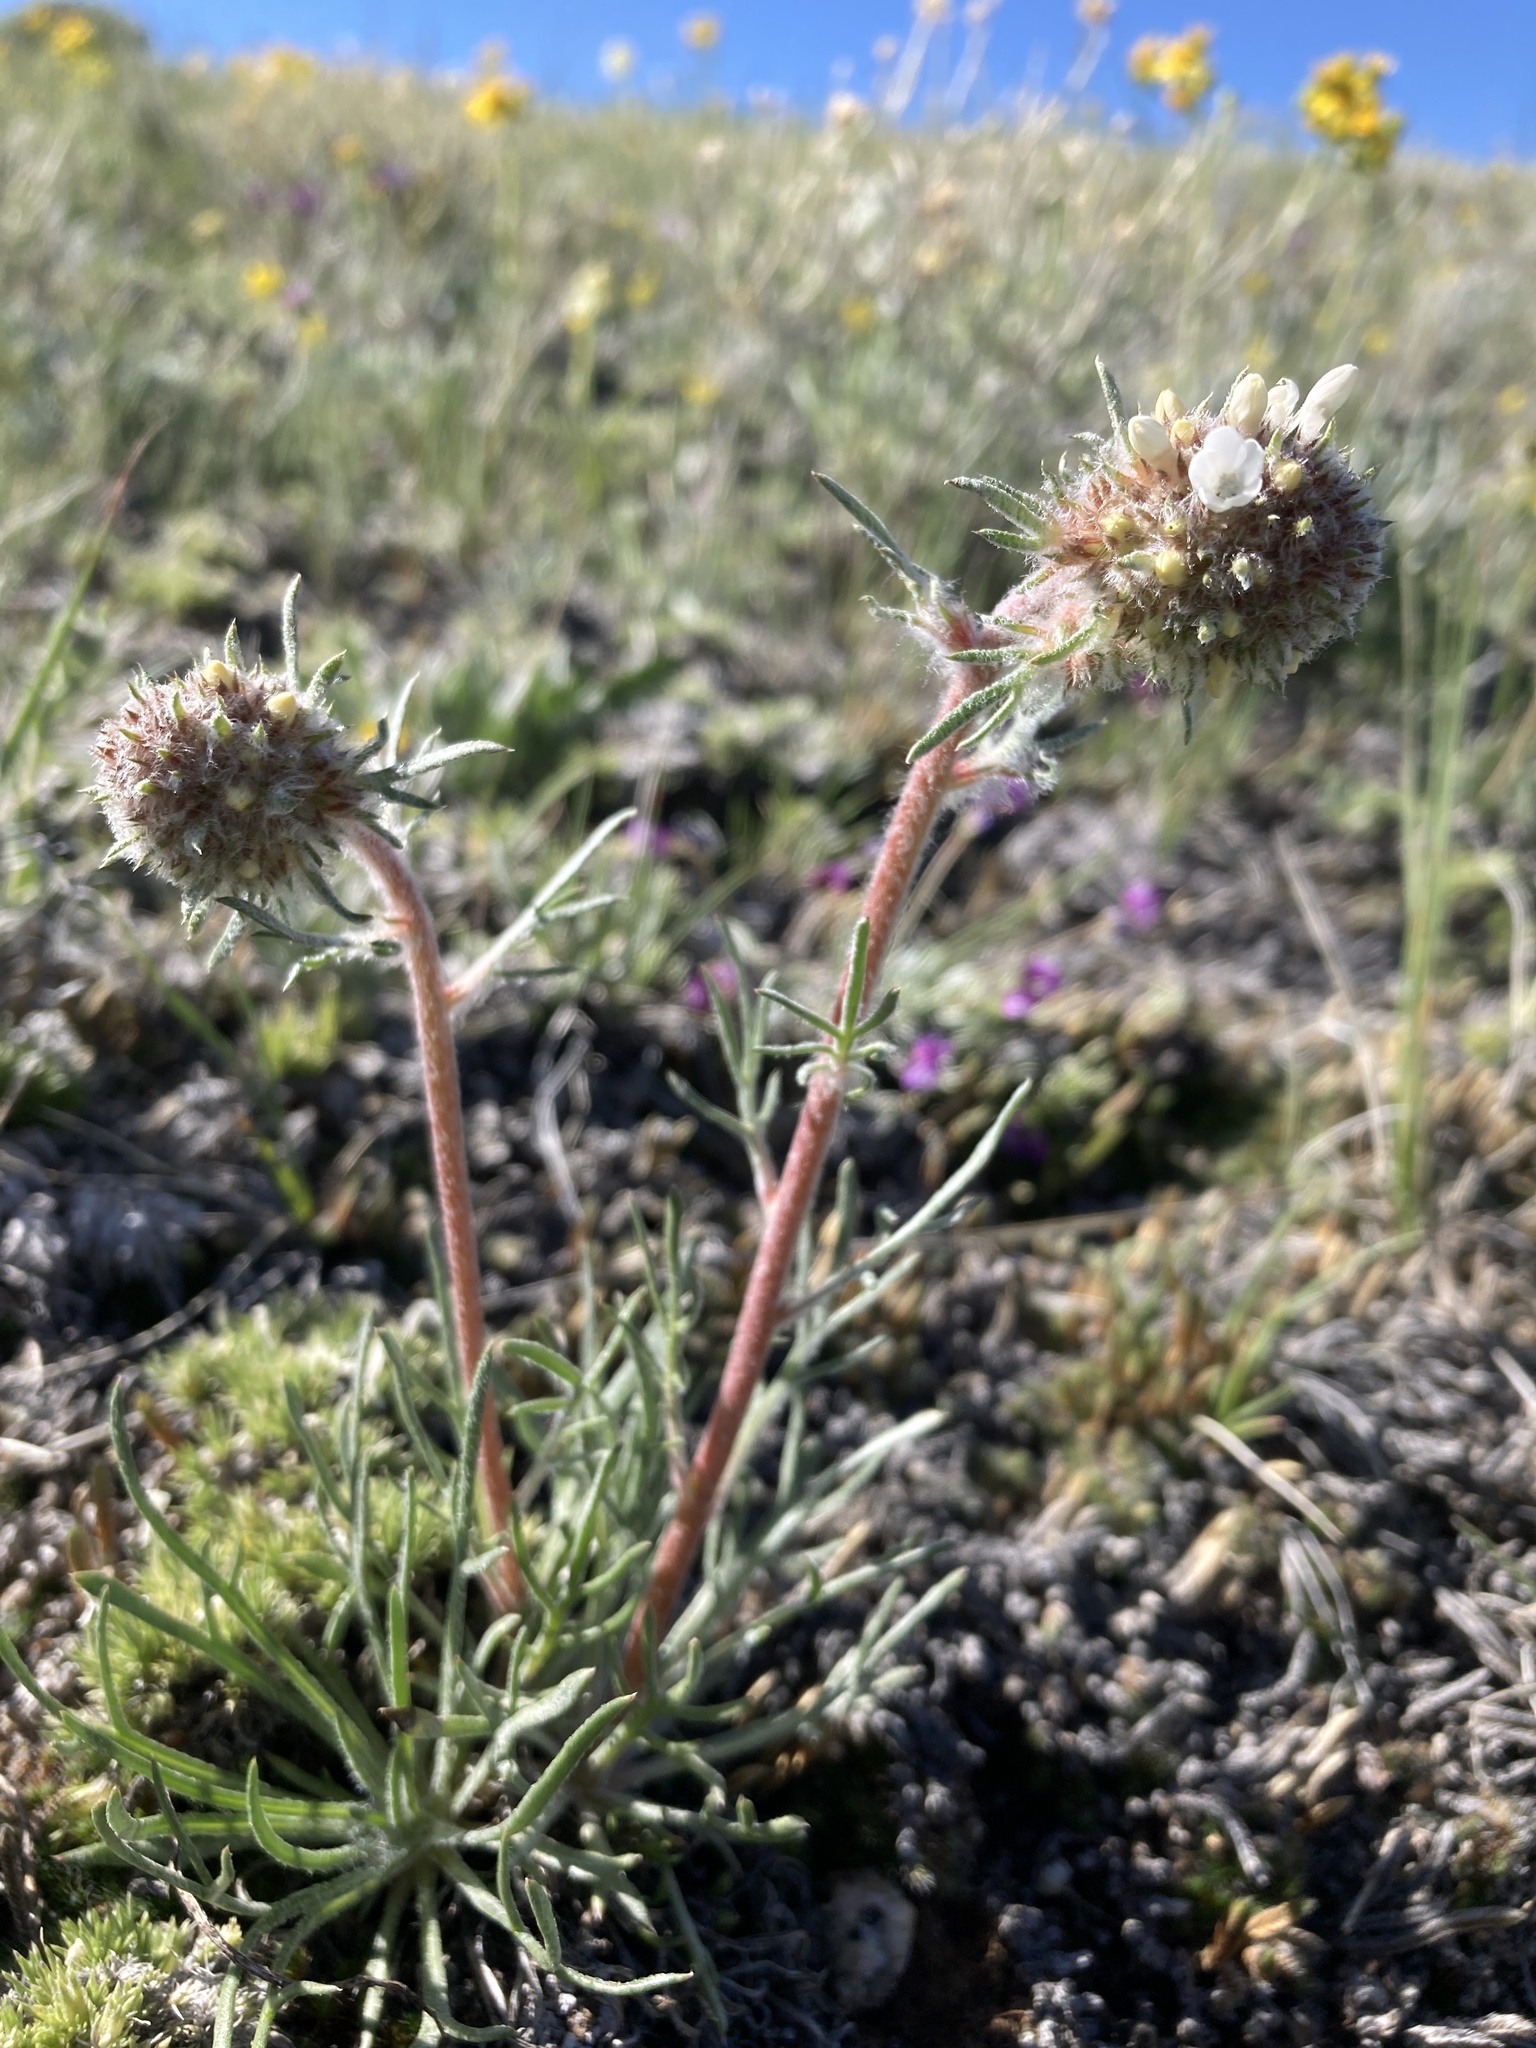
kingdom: Plantae
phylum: Tracheophyta
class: Magnoliopsida
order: Ericales
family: Polemoniaceae
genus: Ipomopsis
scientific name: Ipomopsis spicata
